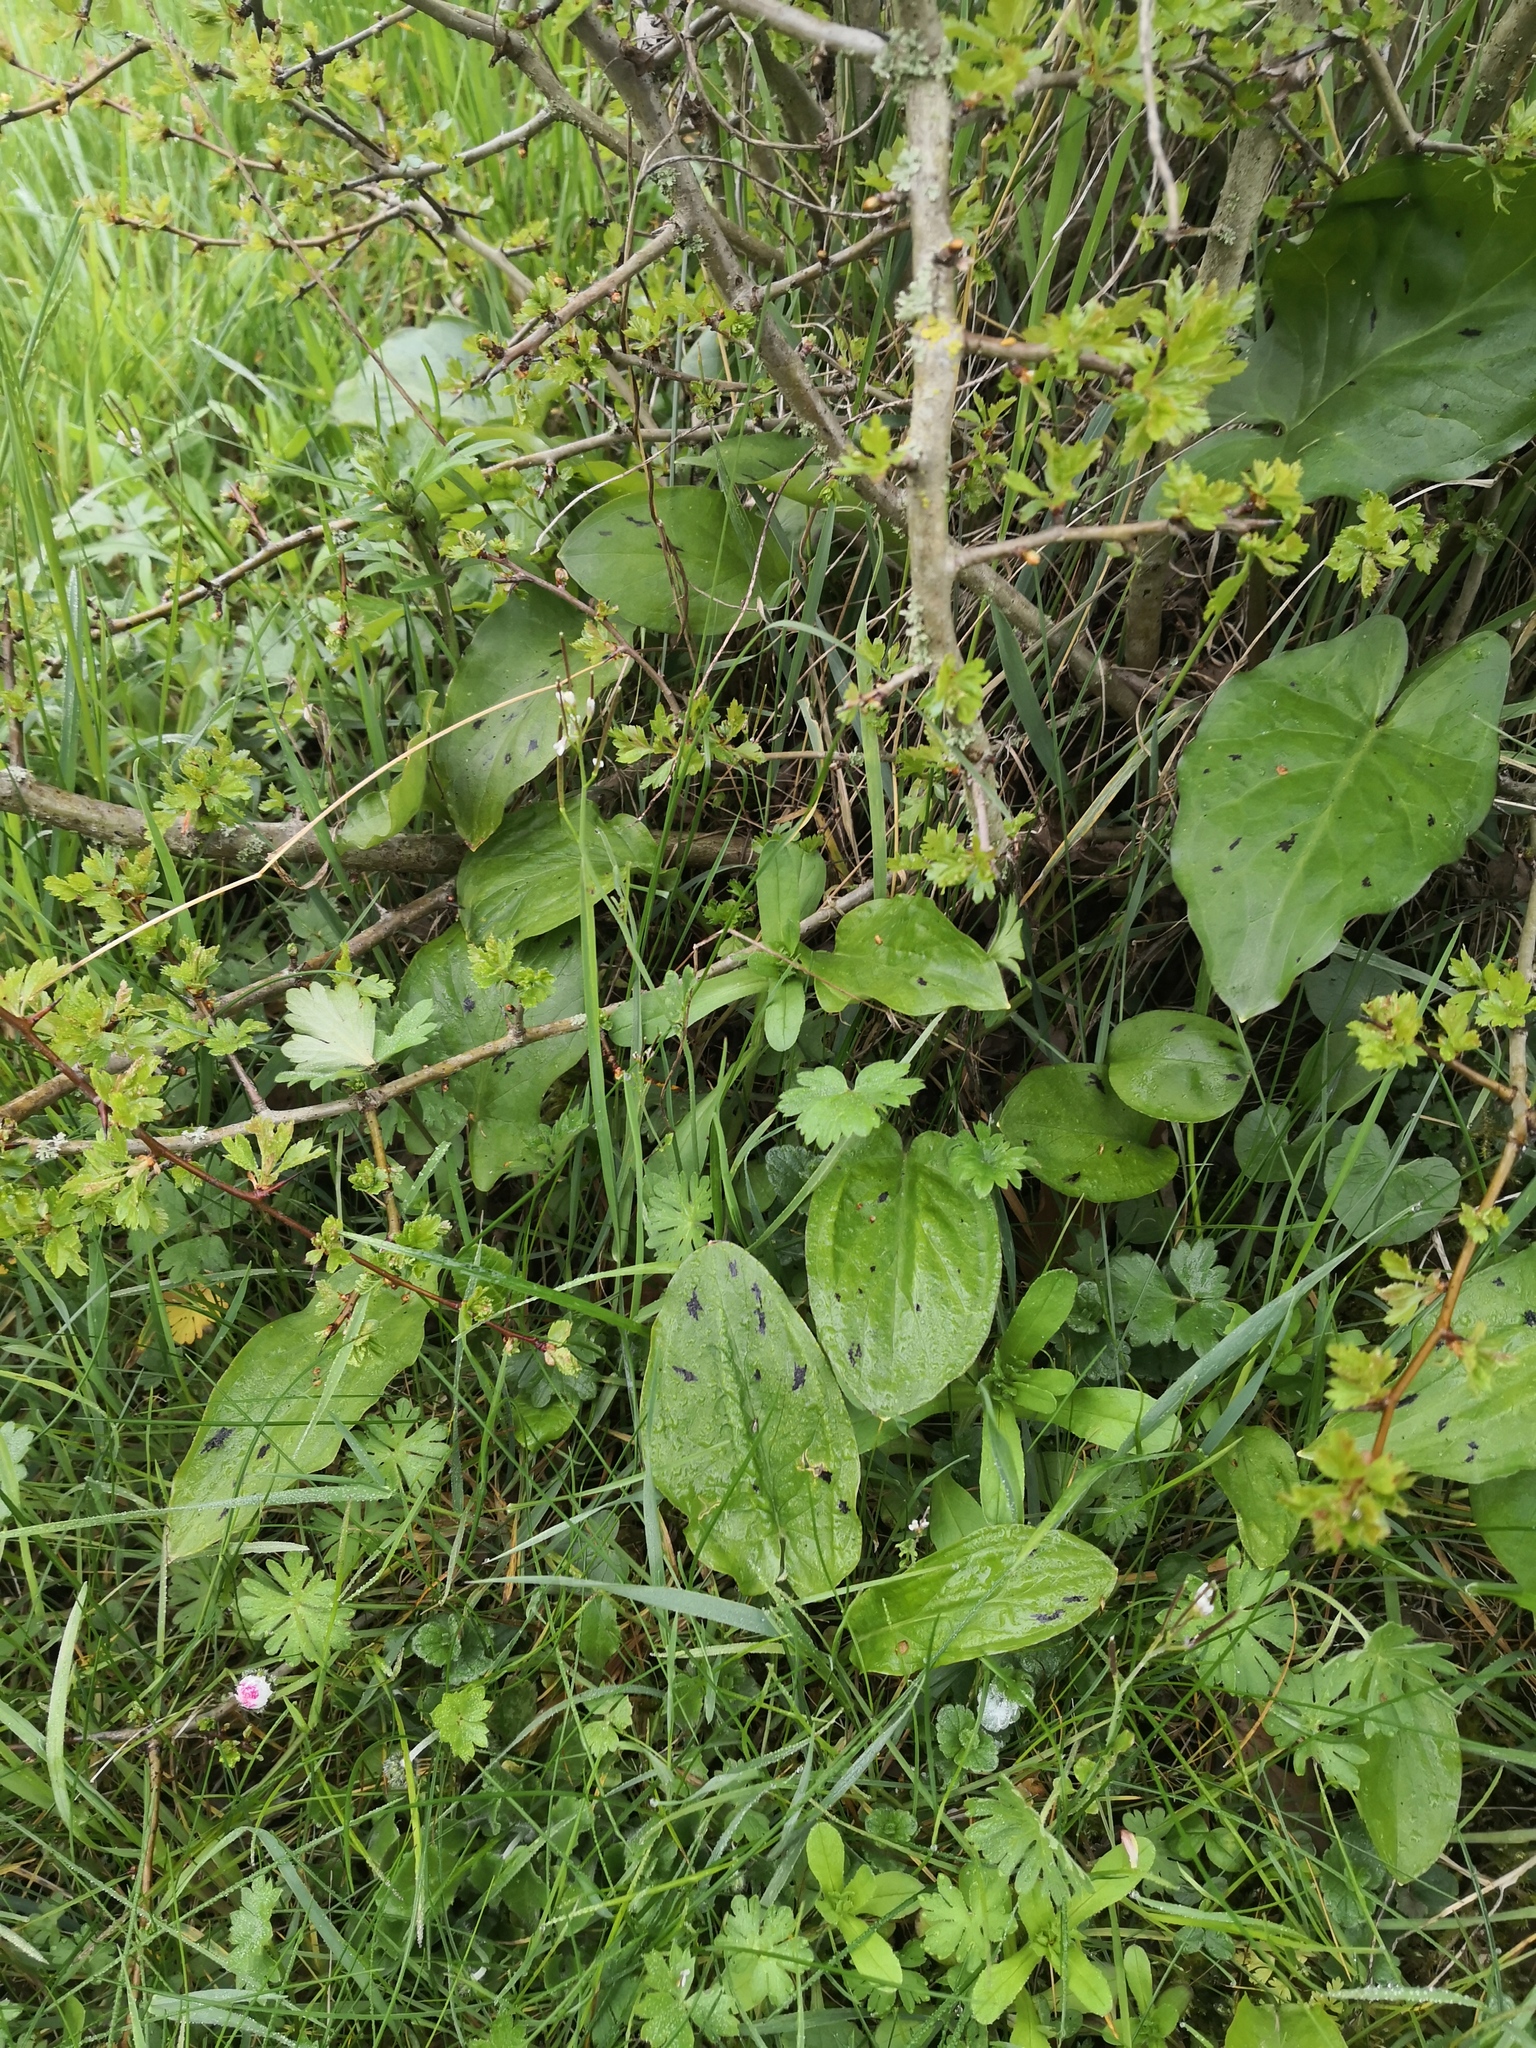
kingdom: Plantae
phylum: Tracheophyta
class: Liliopsida
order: Alismatales
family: Araceae
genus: Arum
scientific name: Arum maculatum
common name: Lords-and-ladies
